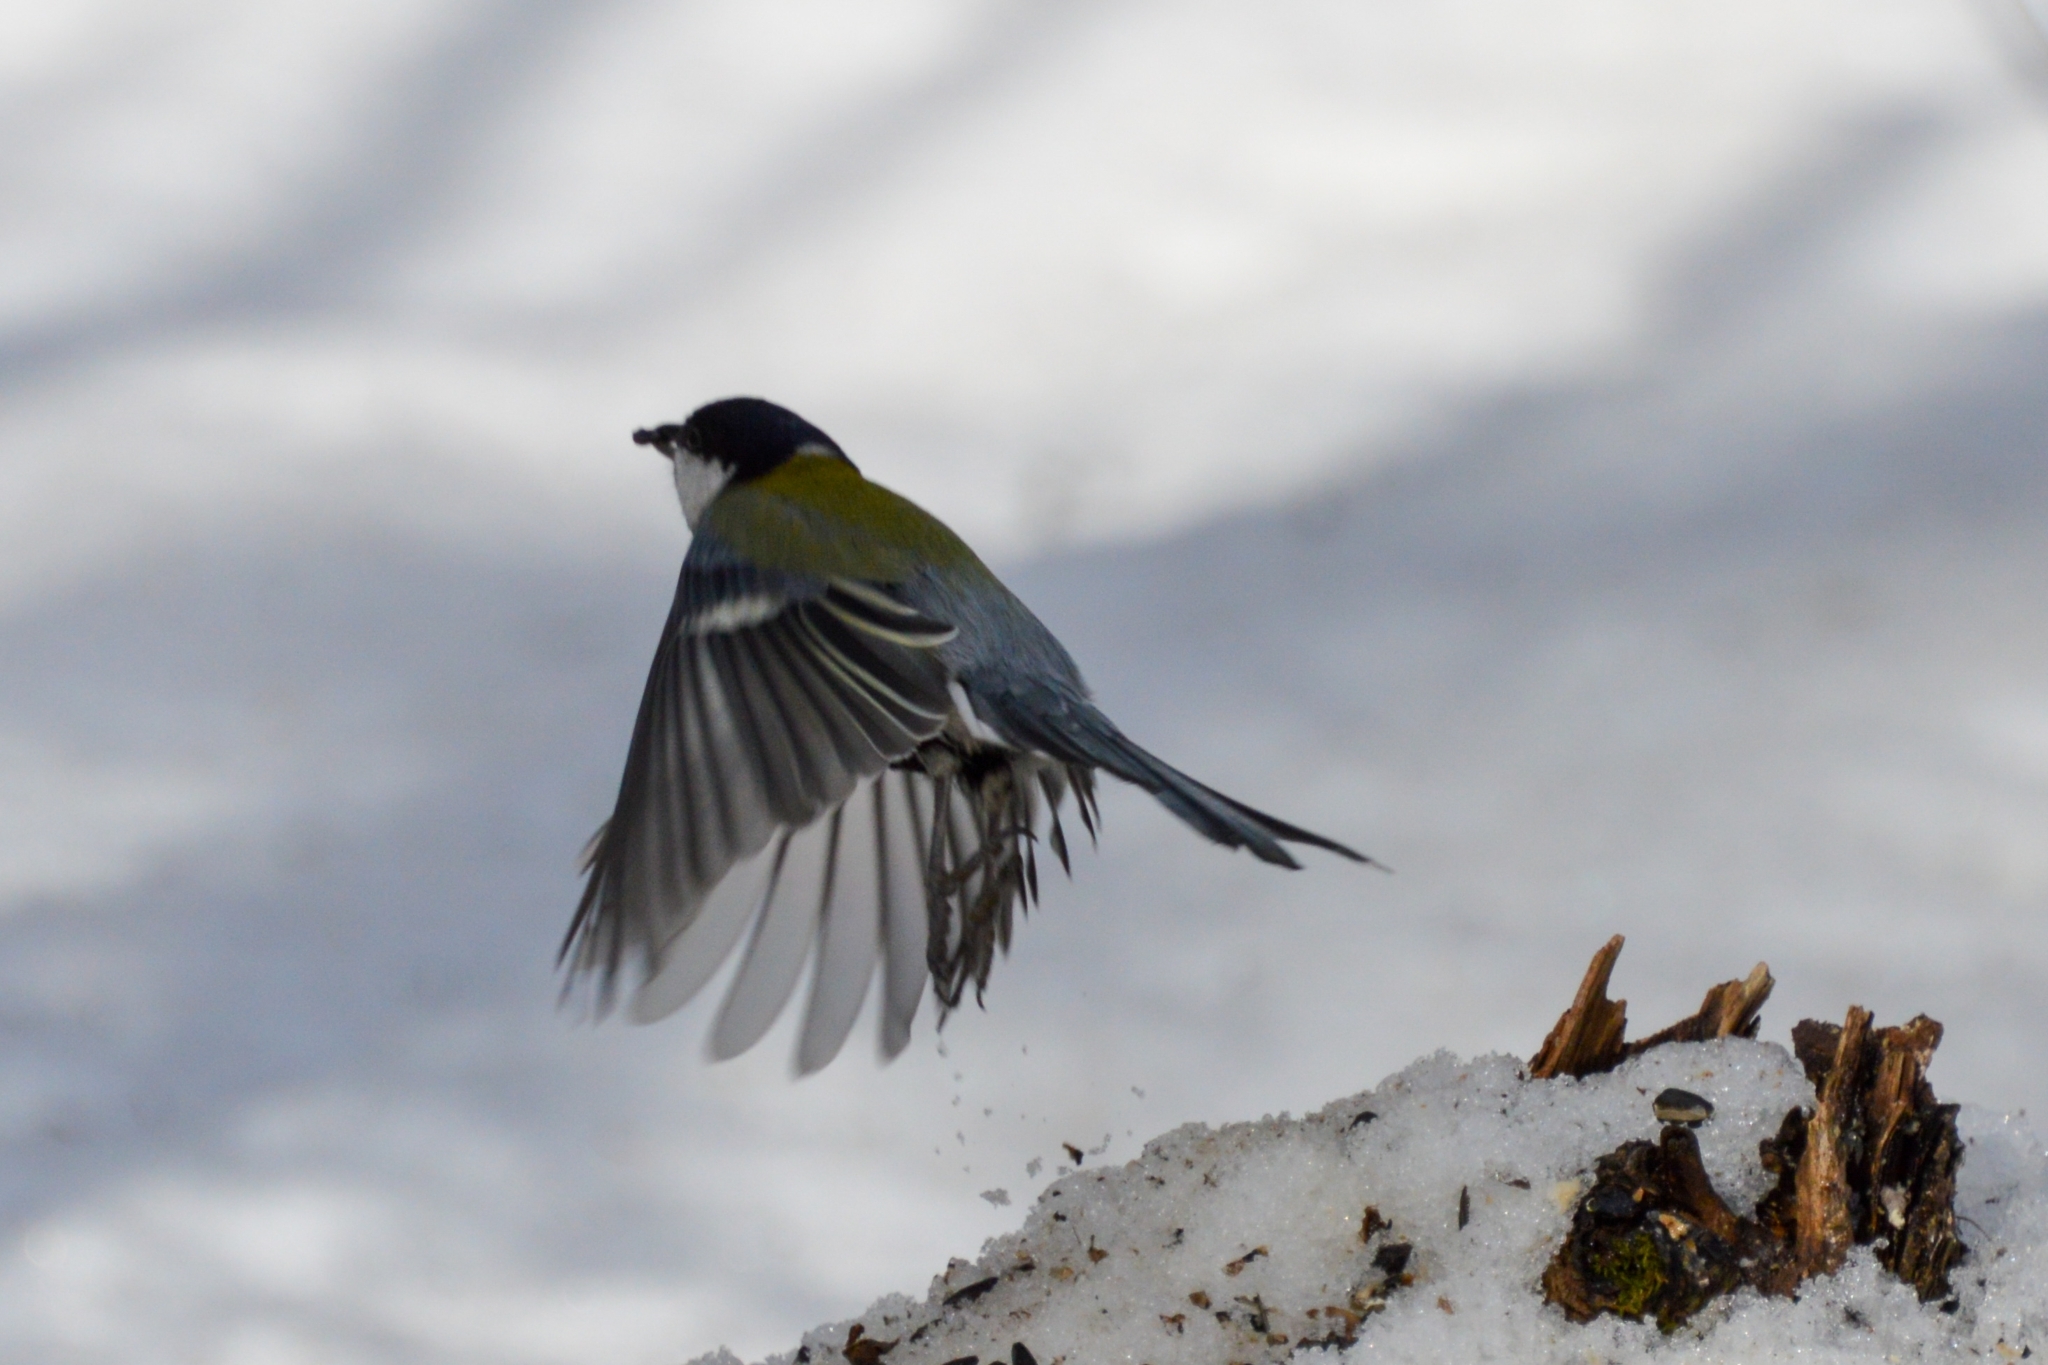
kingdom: Animalia
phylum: Chordata
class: Aves
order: Passeriformes
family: Paridae
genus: Parus
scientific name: Parus major
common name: Great tit
